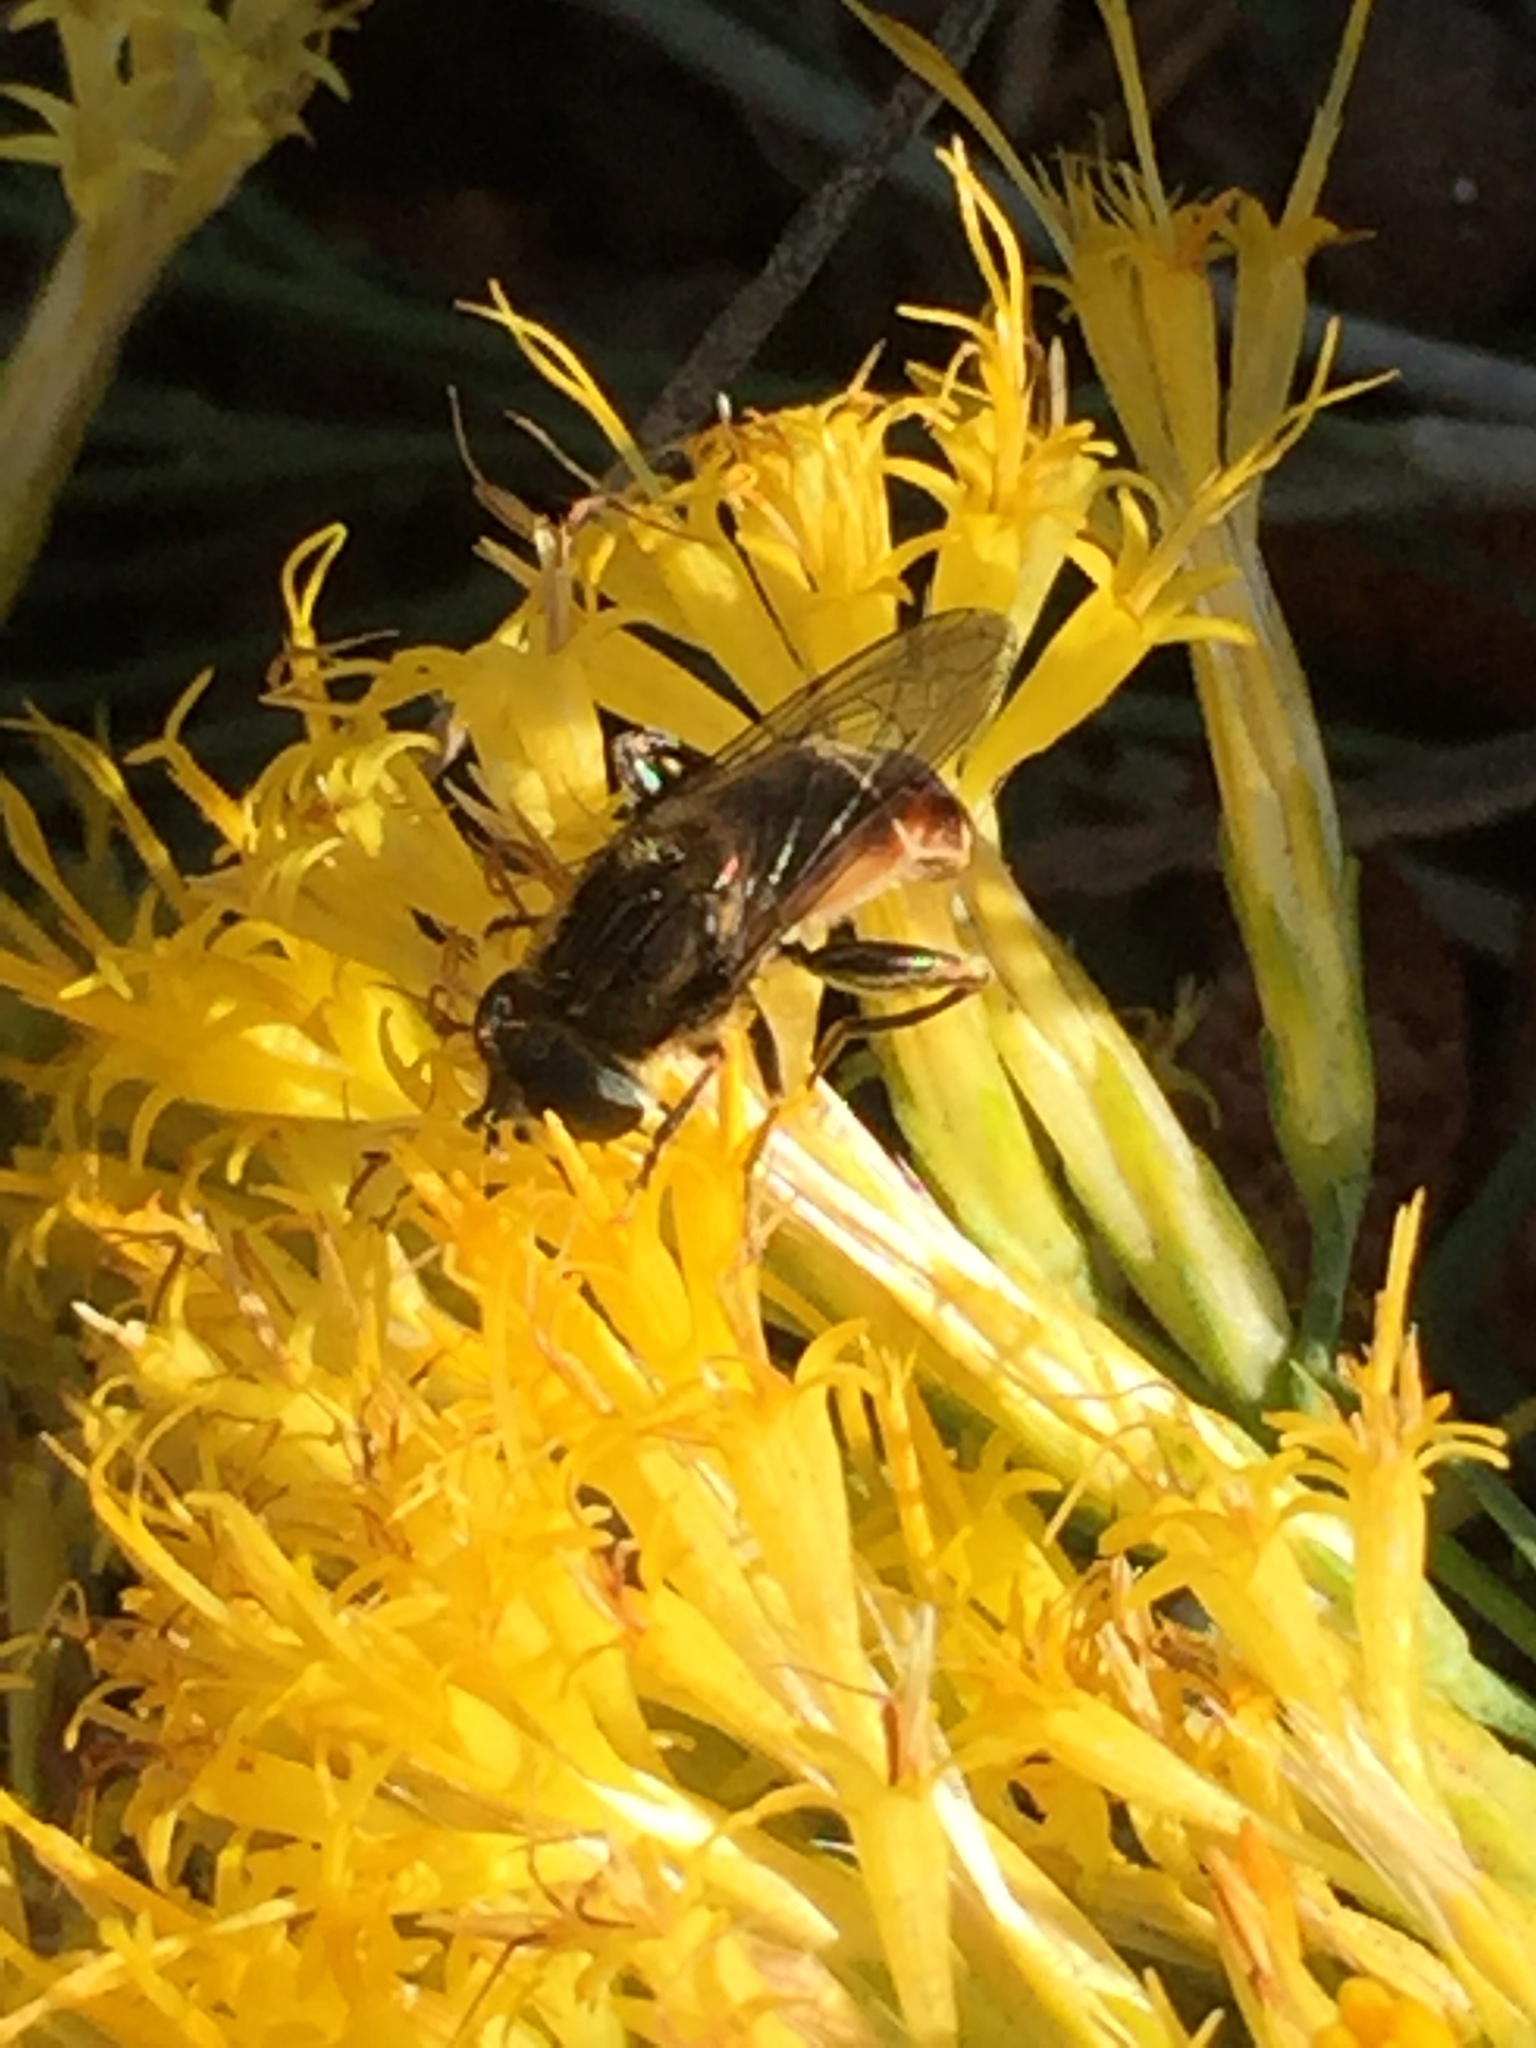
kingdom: Animalia
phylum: Arthropoda
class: Insecta
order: Diptera
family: Syrphidae
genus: Asemosyrphus
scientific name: Asemosyrphus polygrammus
